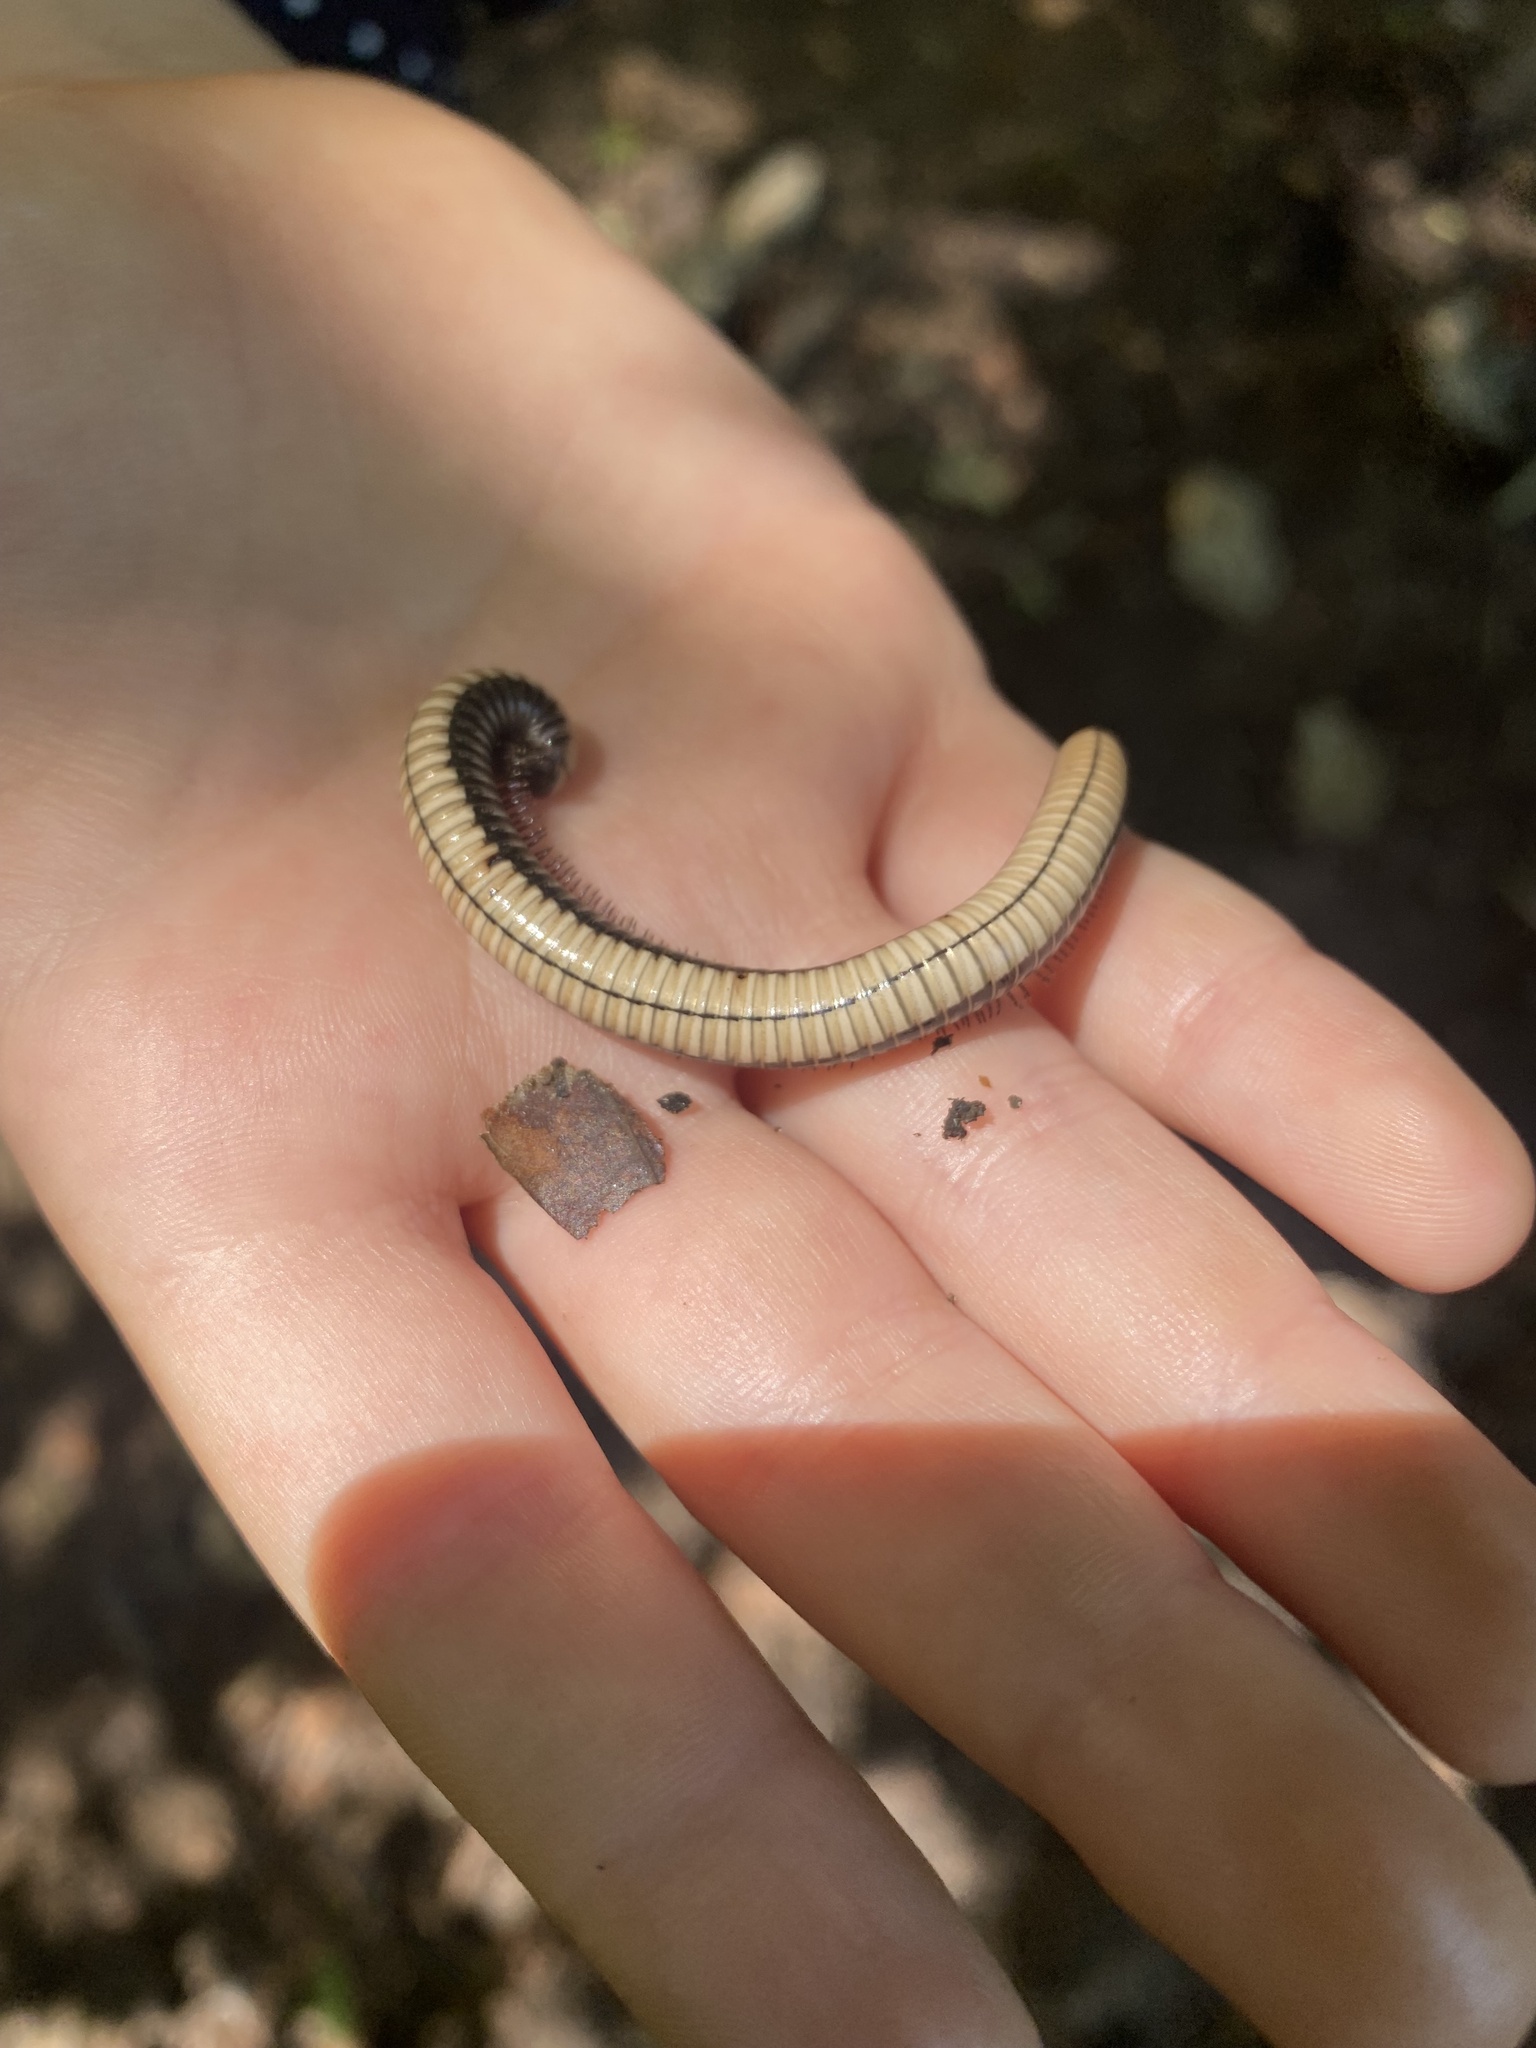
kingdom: Animalia
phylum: Arthropoda
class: Diplopoda
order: Julida
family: Julidae
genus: Pachyiulus
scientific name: Pachyiulus krivolutskyi
